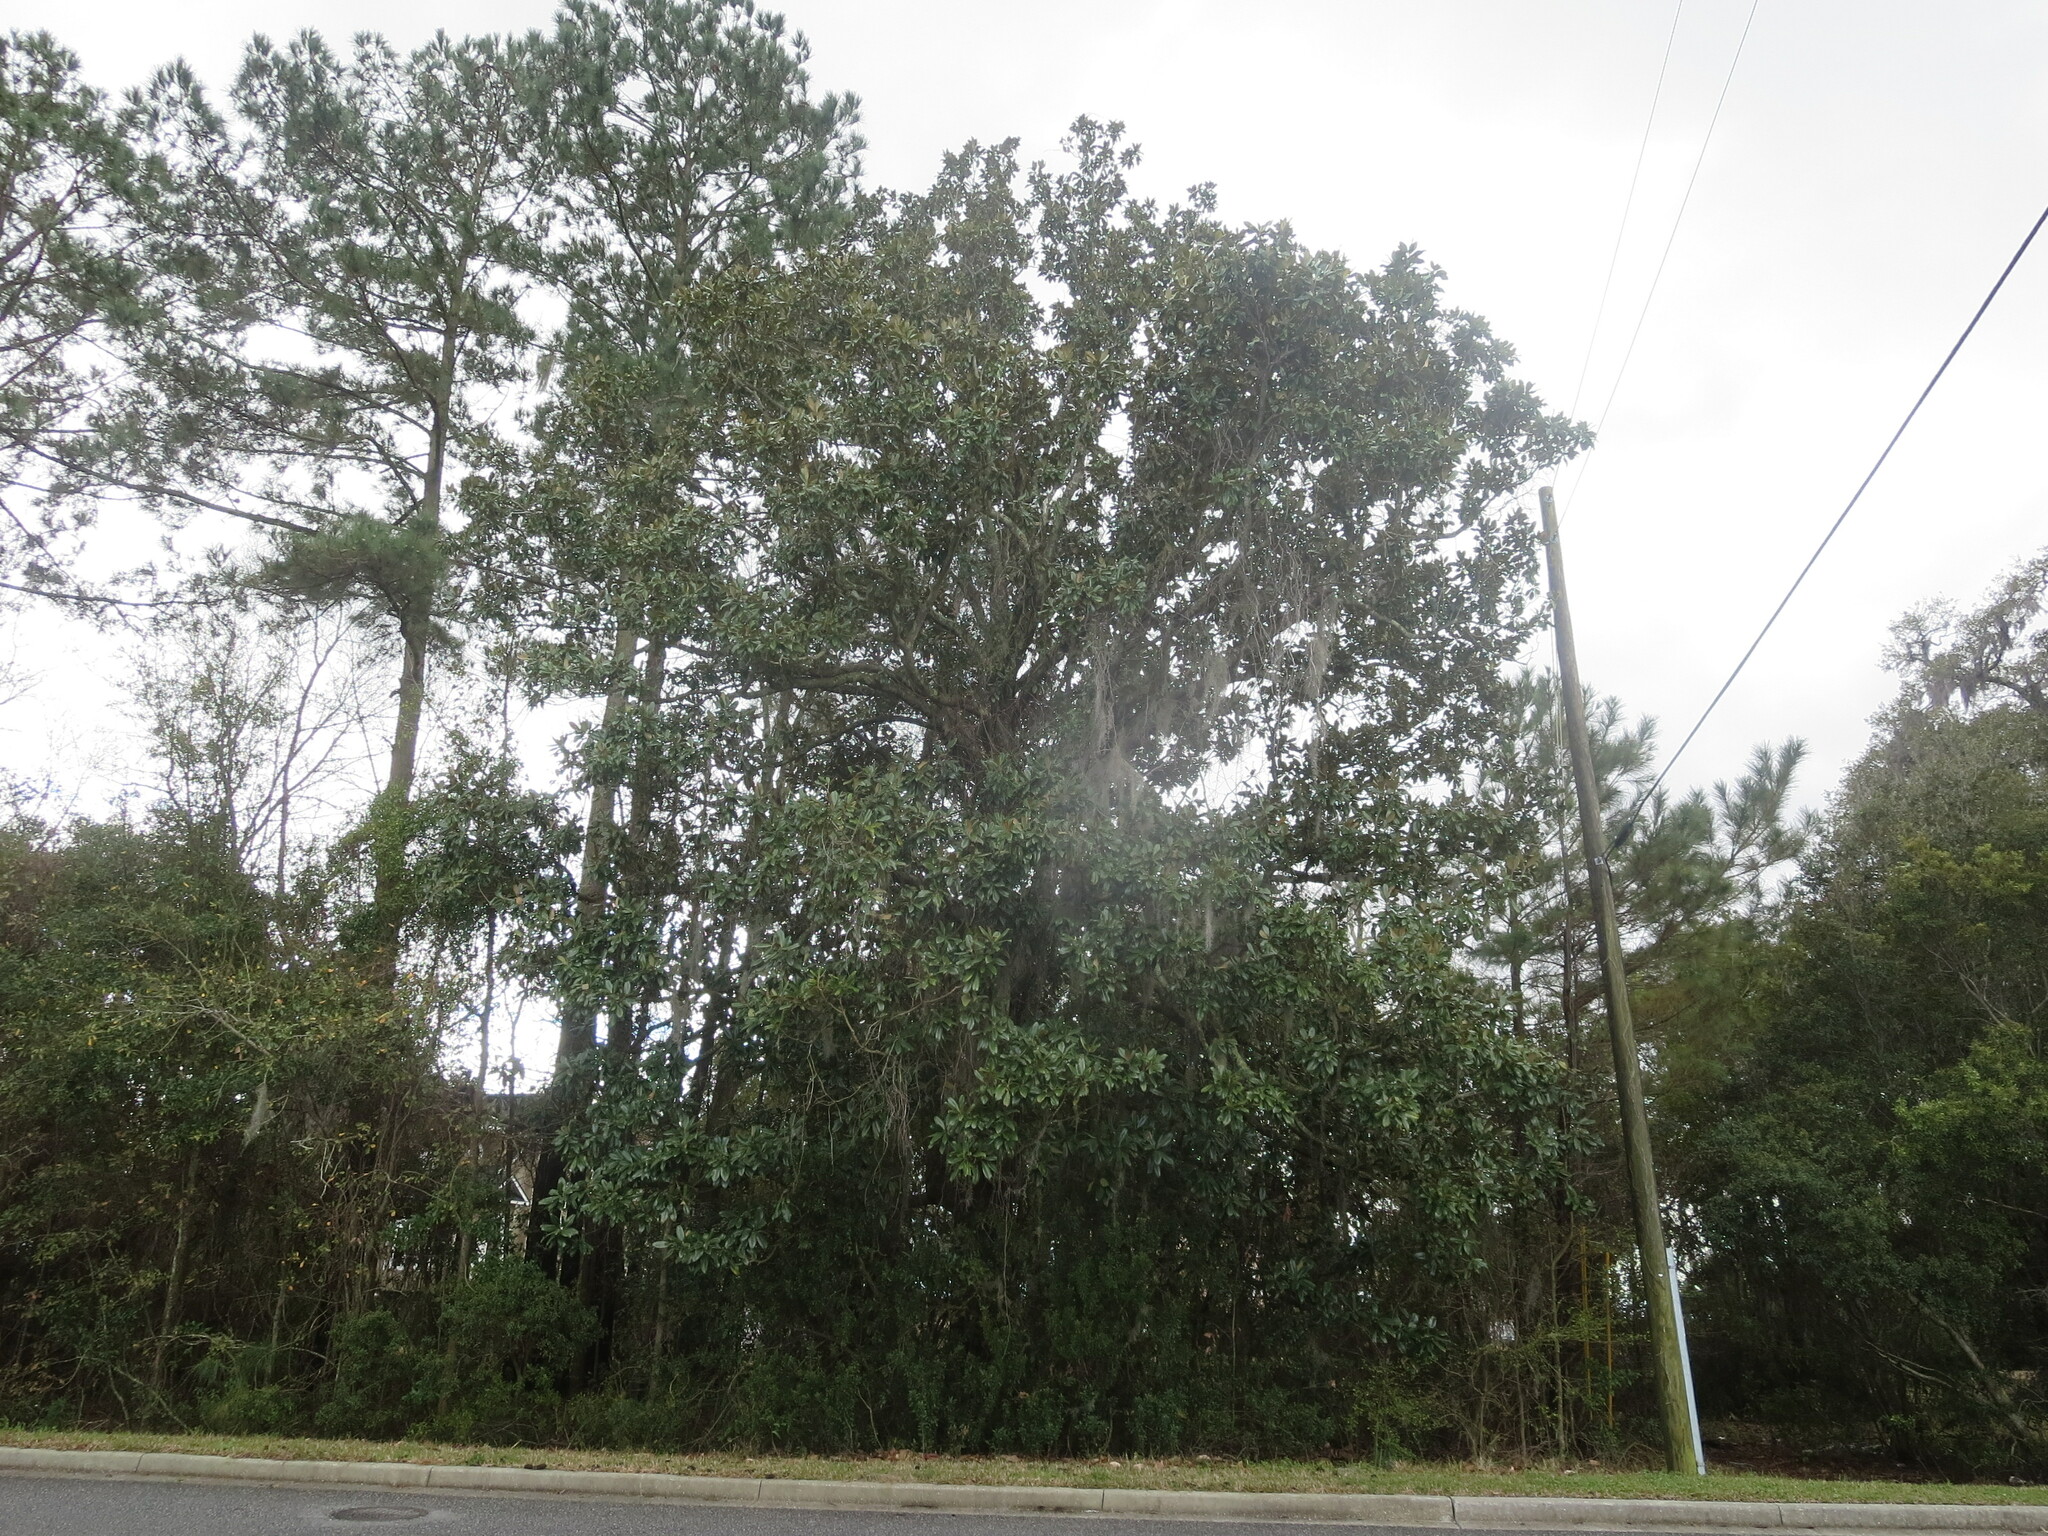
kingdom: Plantae
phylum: Tracheophyta
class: Magnoliopsida
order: Magnoliales
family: Magnoliaceae
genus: Magnolia
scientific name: Magnolia grandiflora
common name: Southern magnolia
